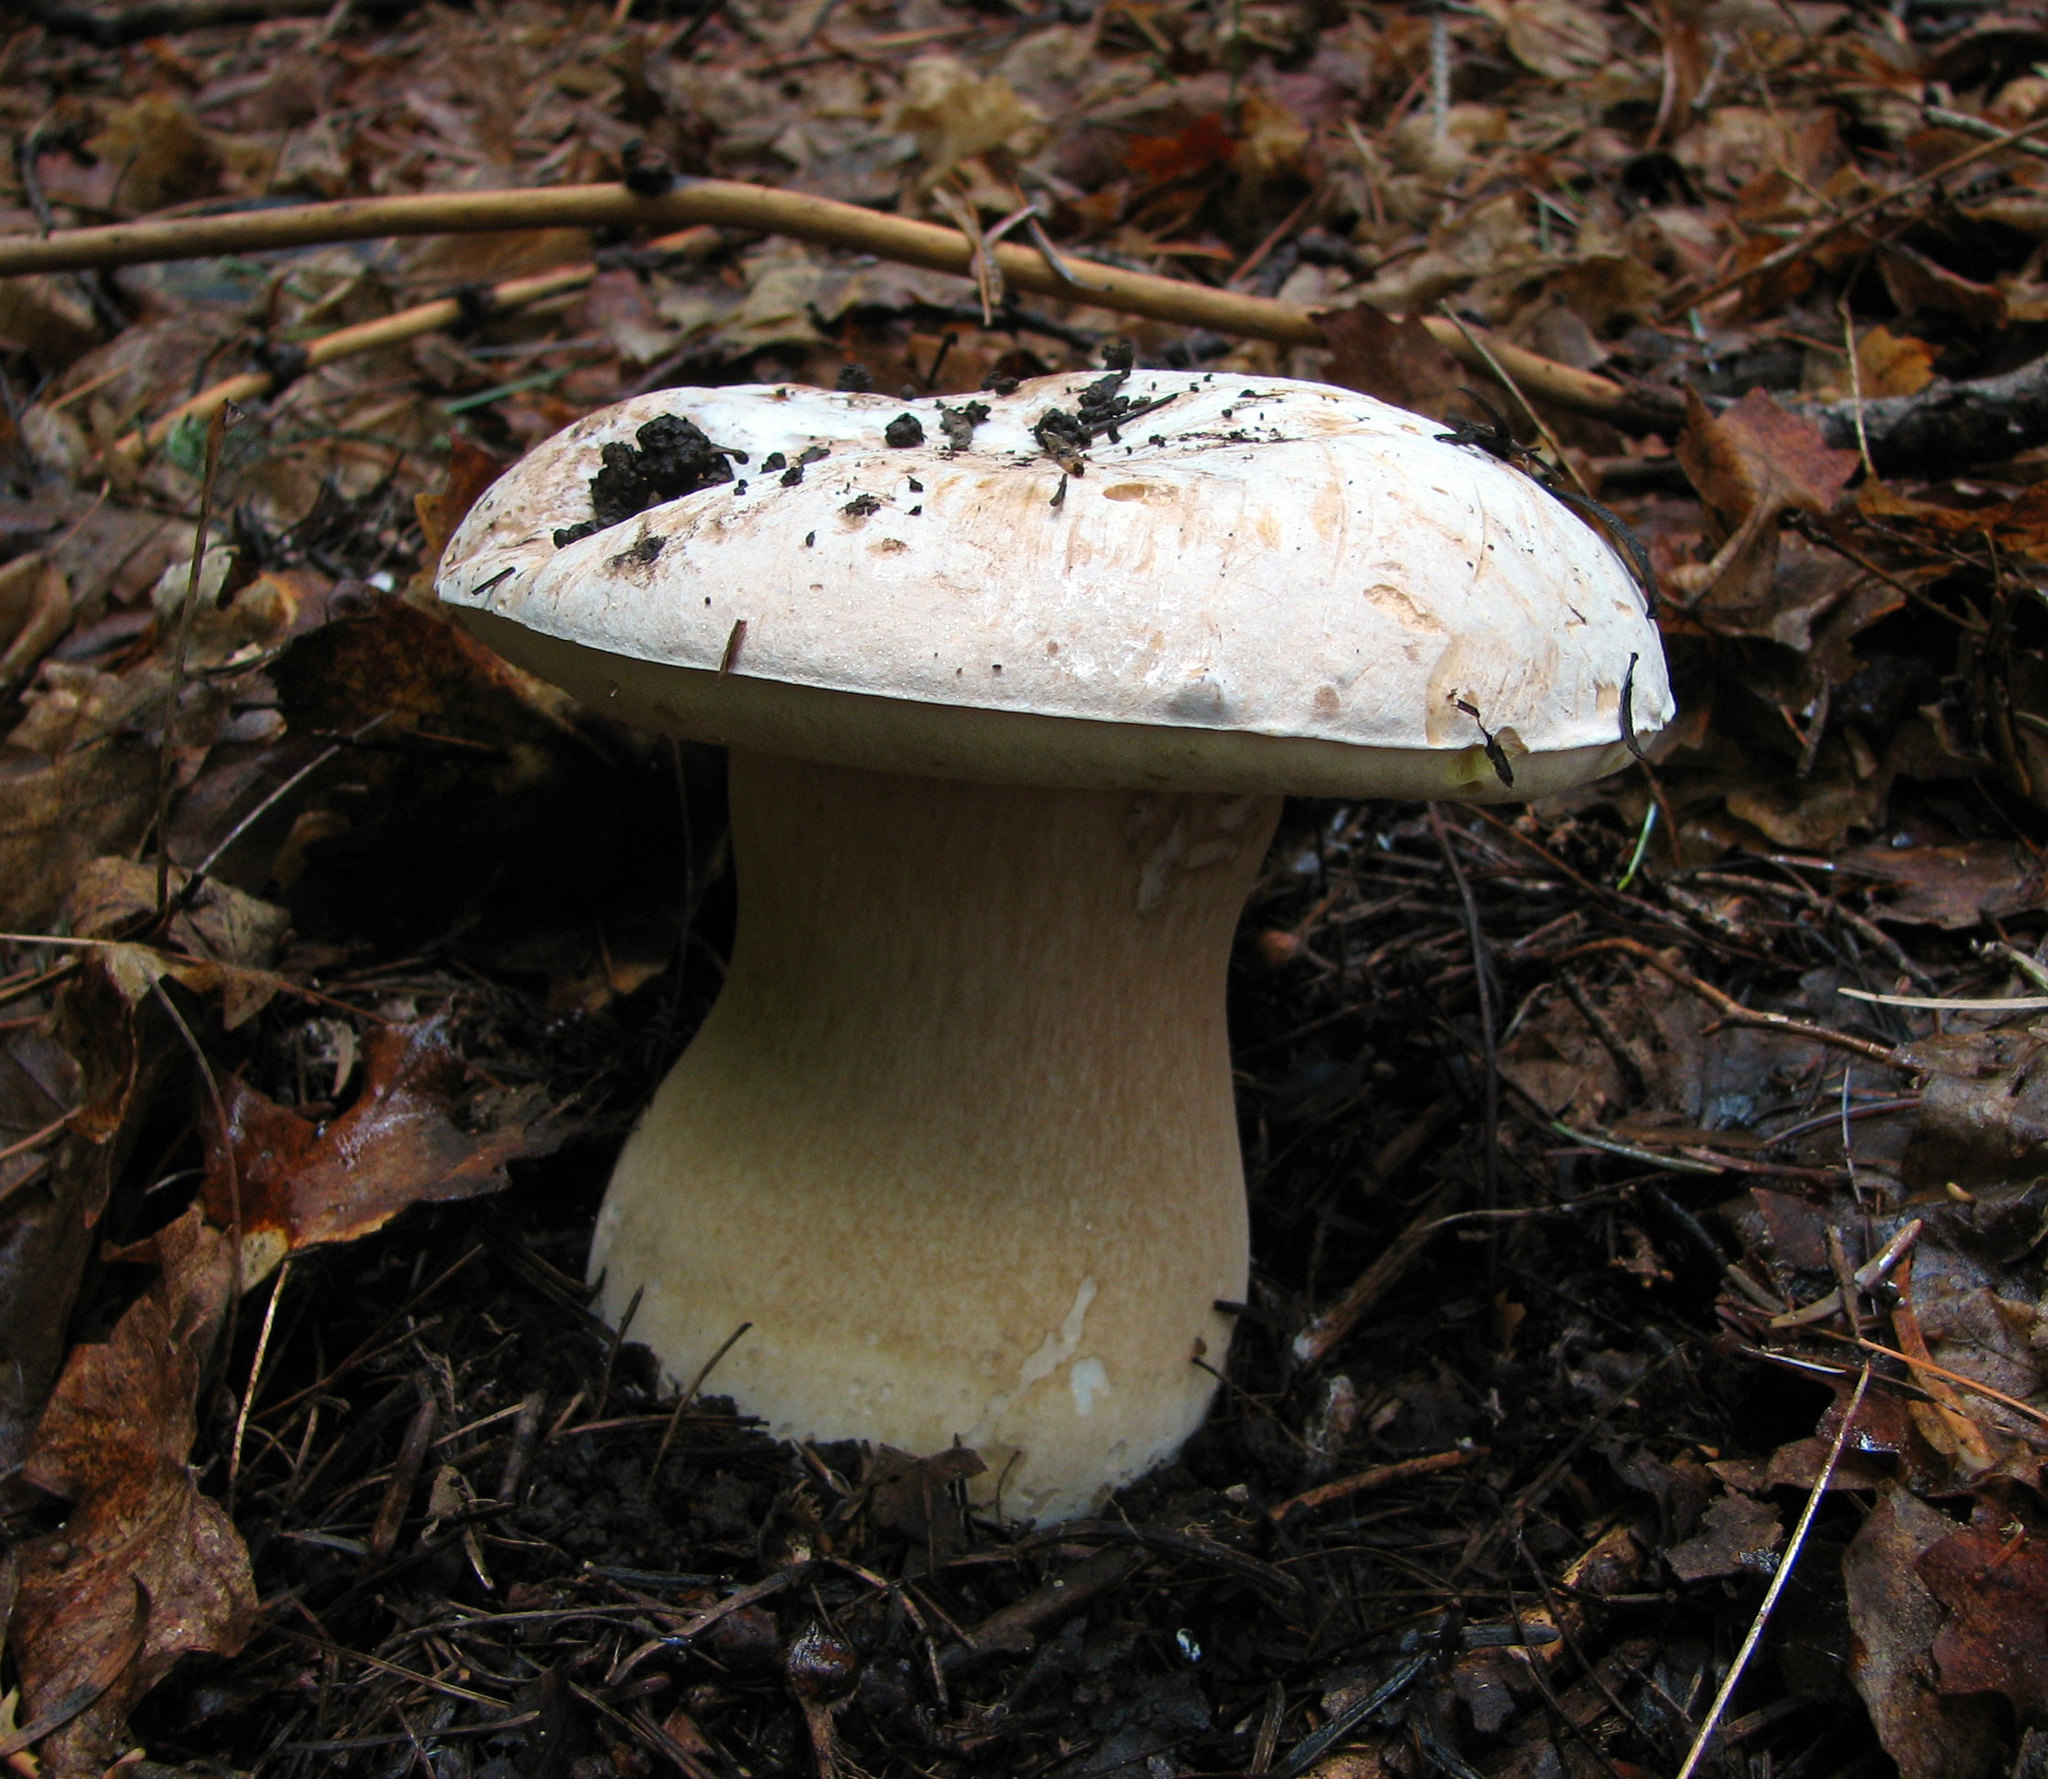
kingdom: Fungi
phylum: Basidiomycota
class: Agaricomycetes
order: Boletales
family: Boletaceae
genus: Boletus
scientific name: Boletus barrowsii
